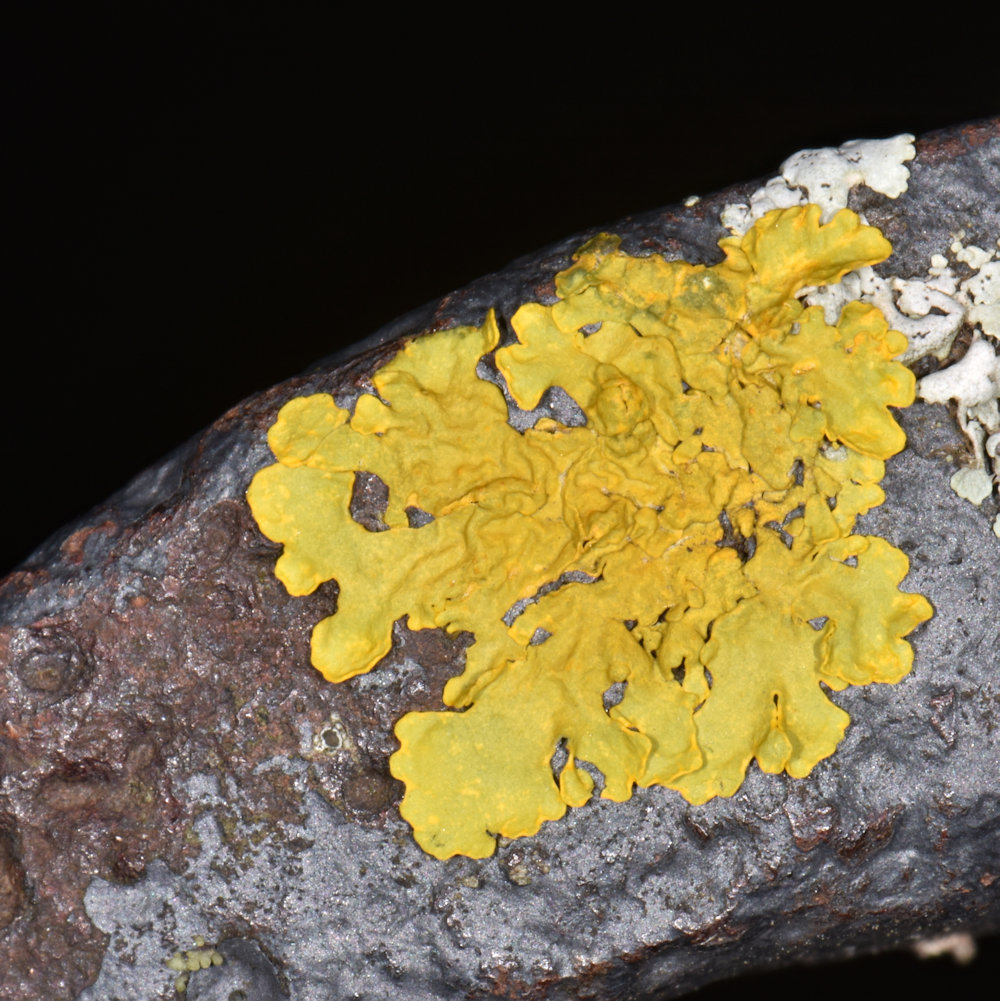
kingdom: Fungi
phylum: Ascomycota
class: Lecanoromycetes
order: Teloschistales
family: Teloschistaceae
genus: Xanthoria
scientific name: Xanthoria parietina
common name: Common orange lichen
